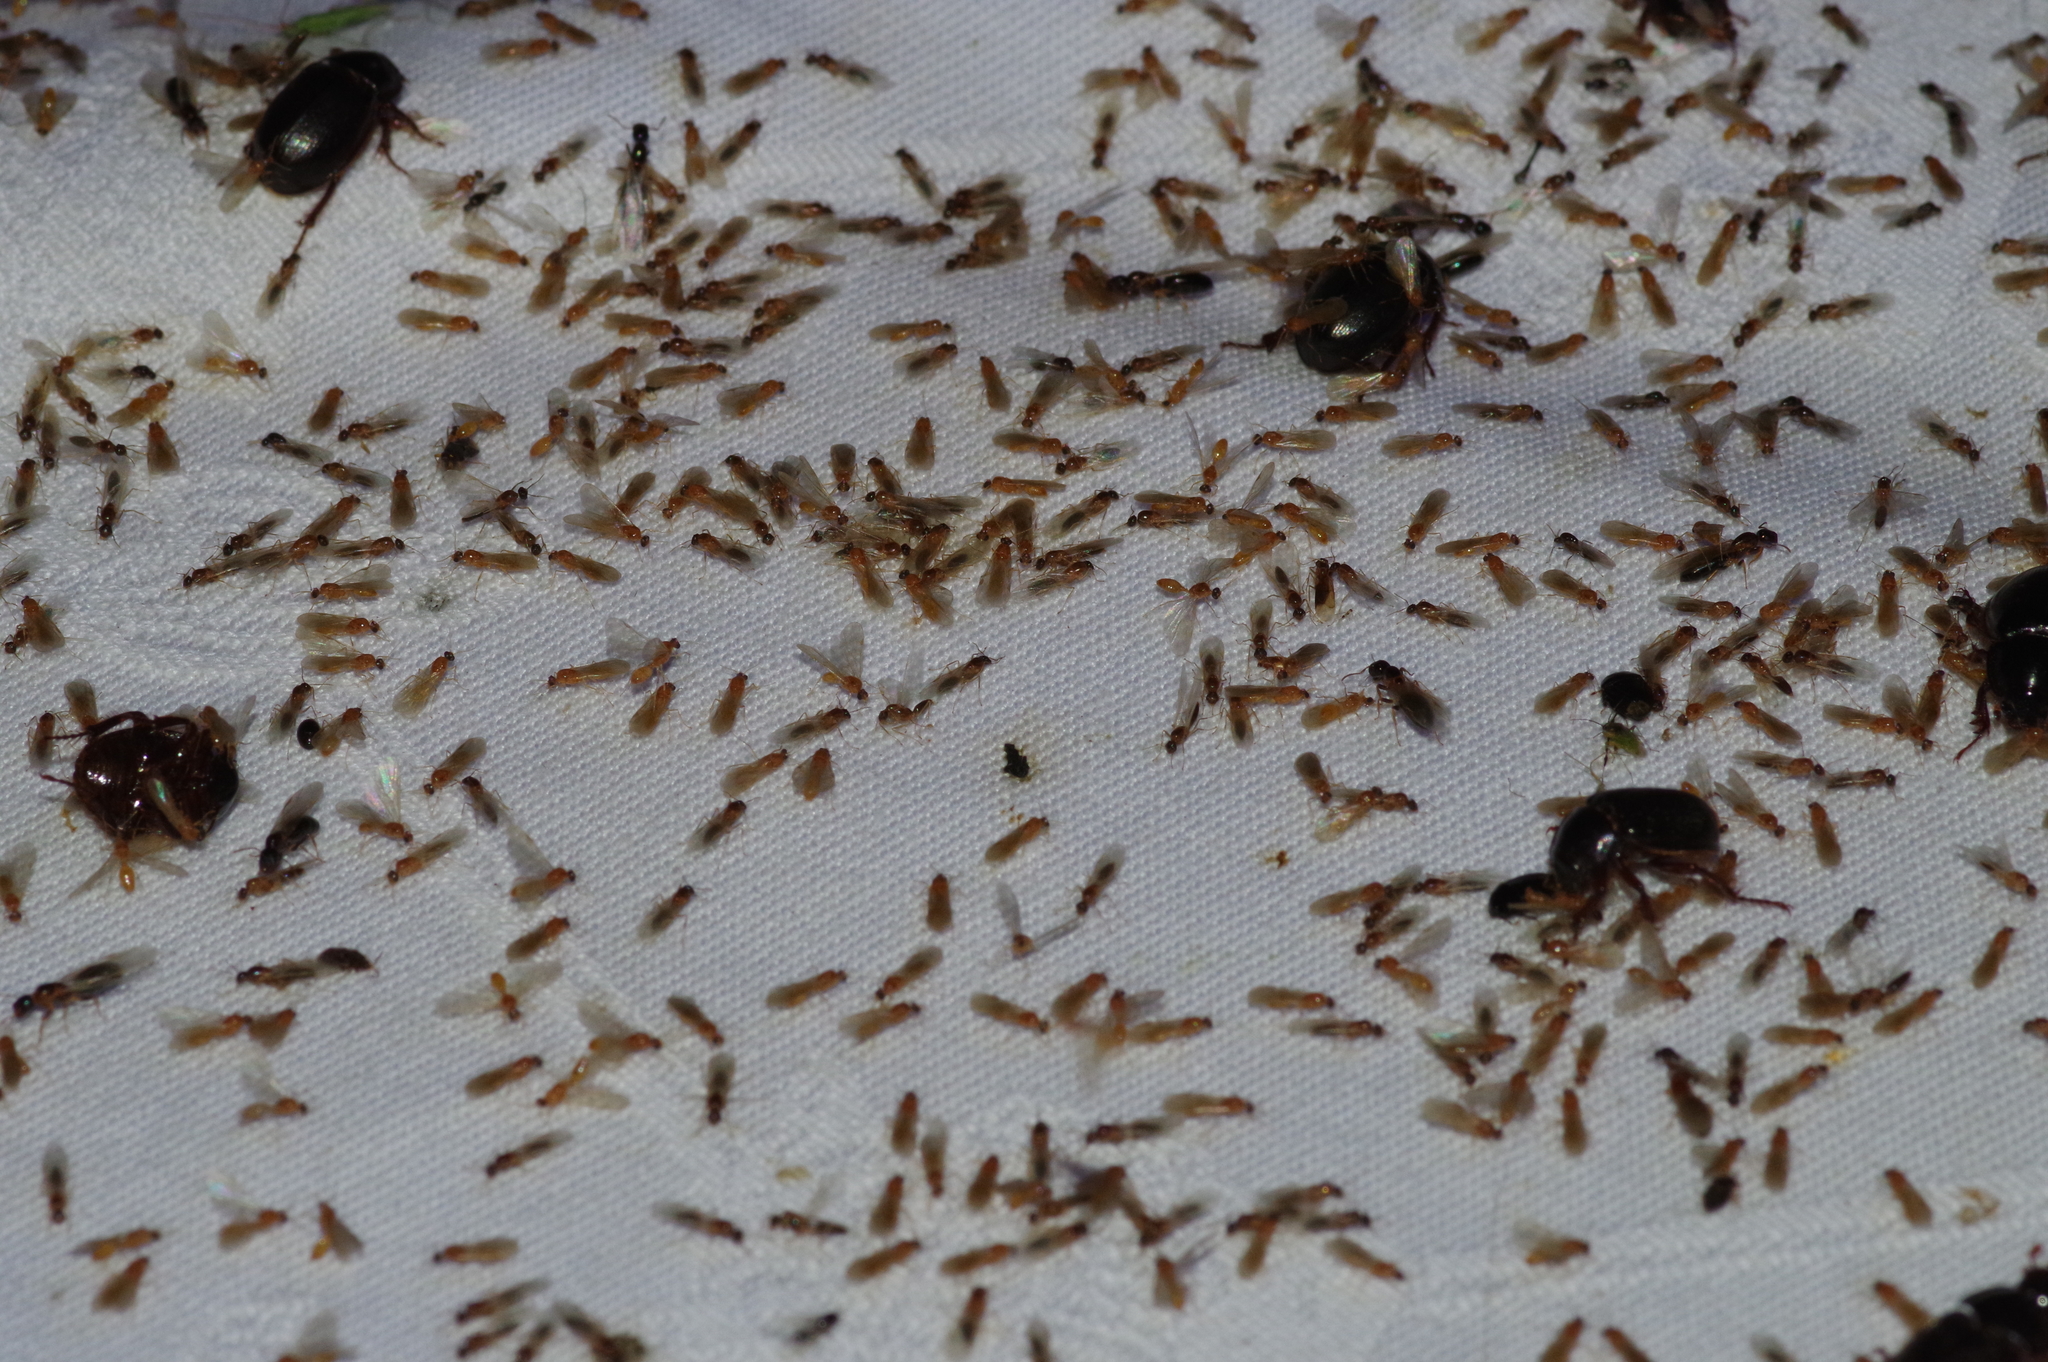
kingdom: Animalia
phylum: Arthropoda
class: Insecta
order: Hymenoptera
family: Formicidae
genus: Colobopsis
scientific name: Colobopsis
